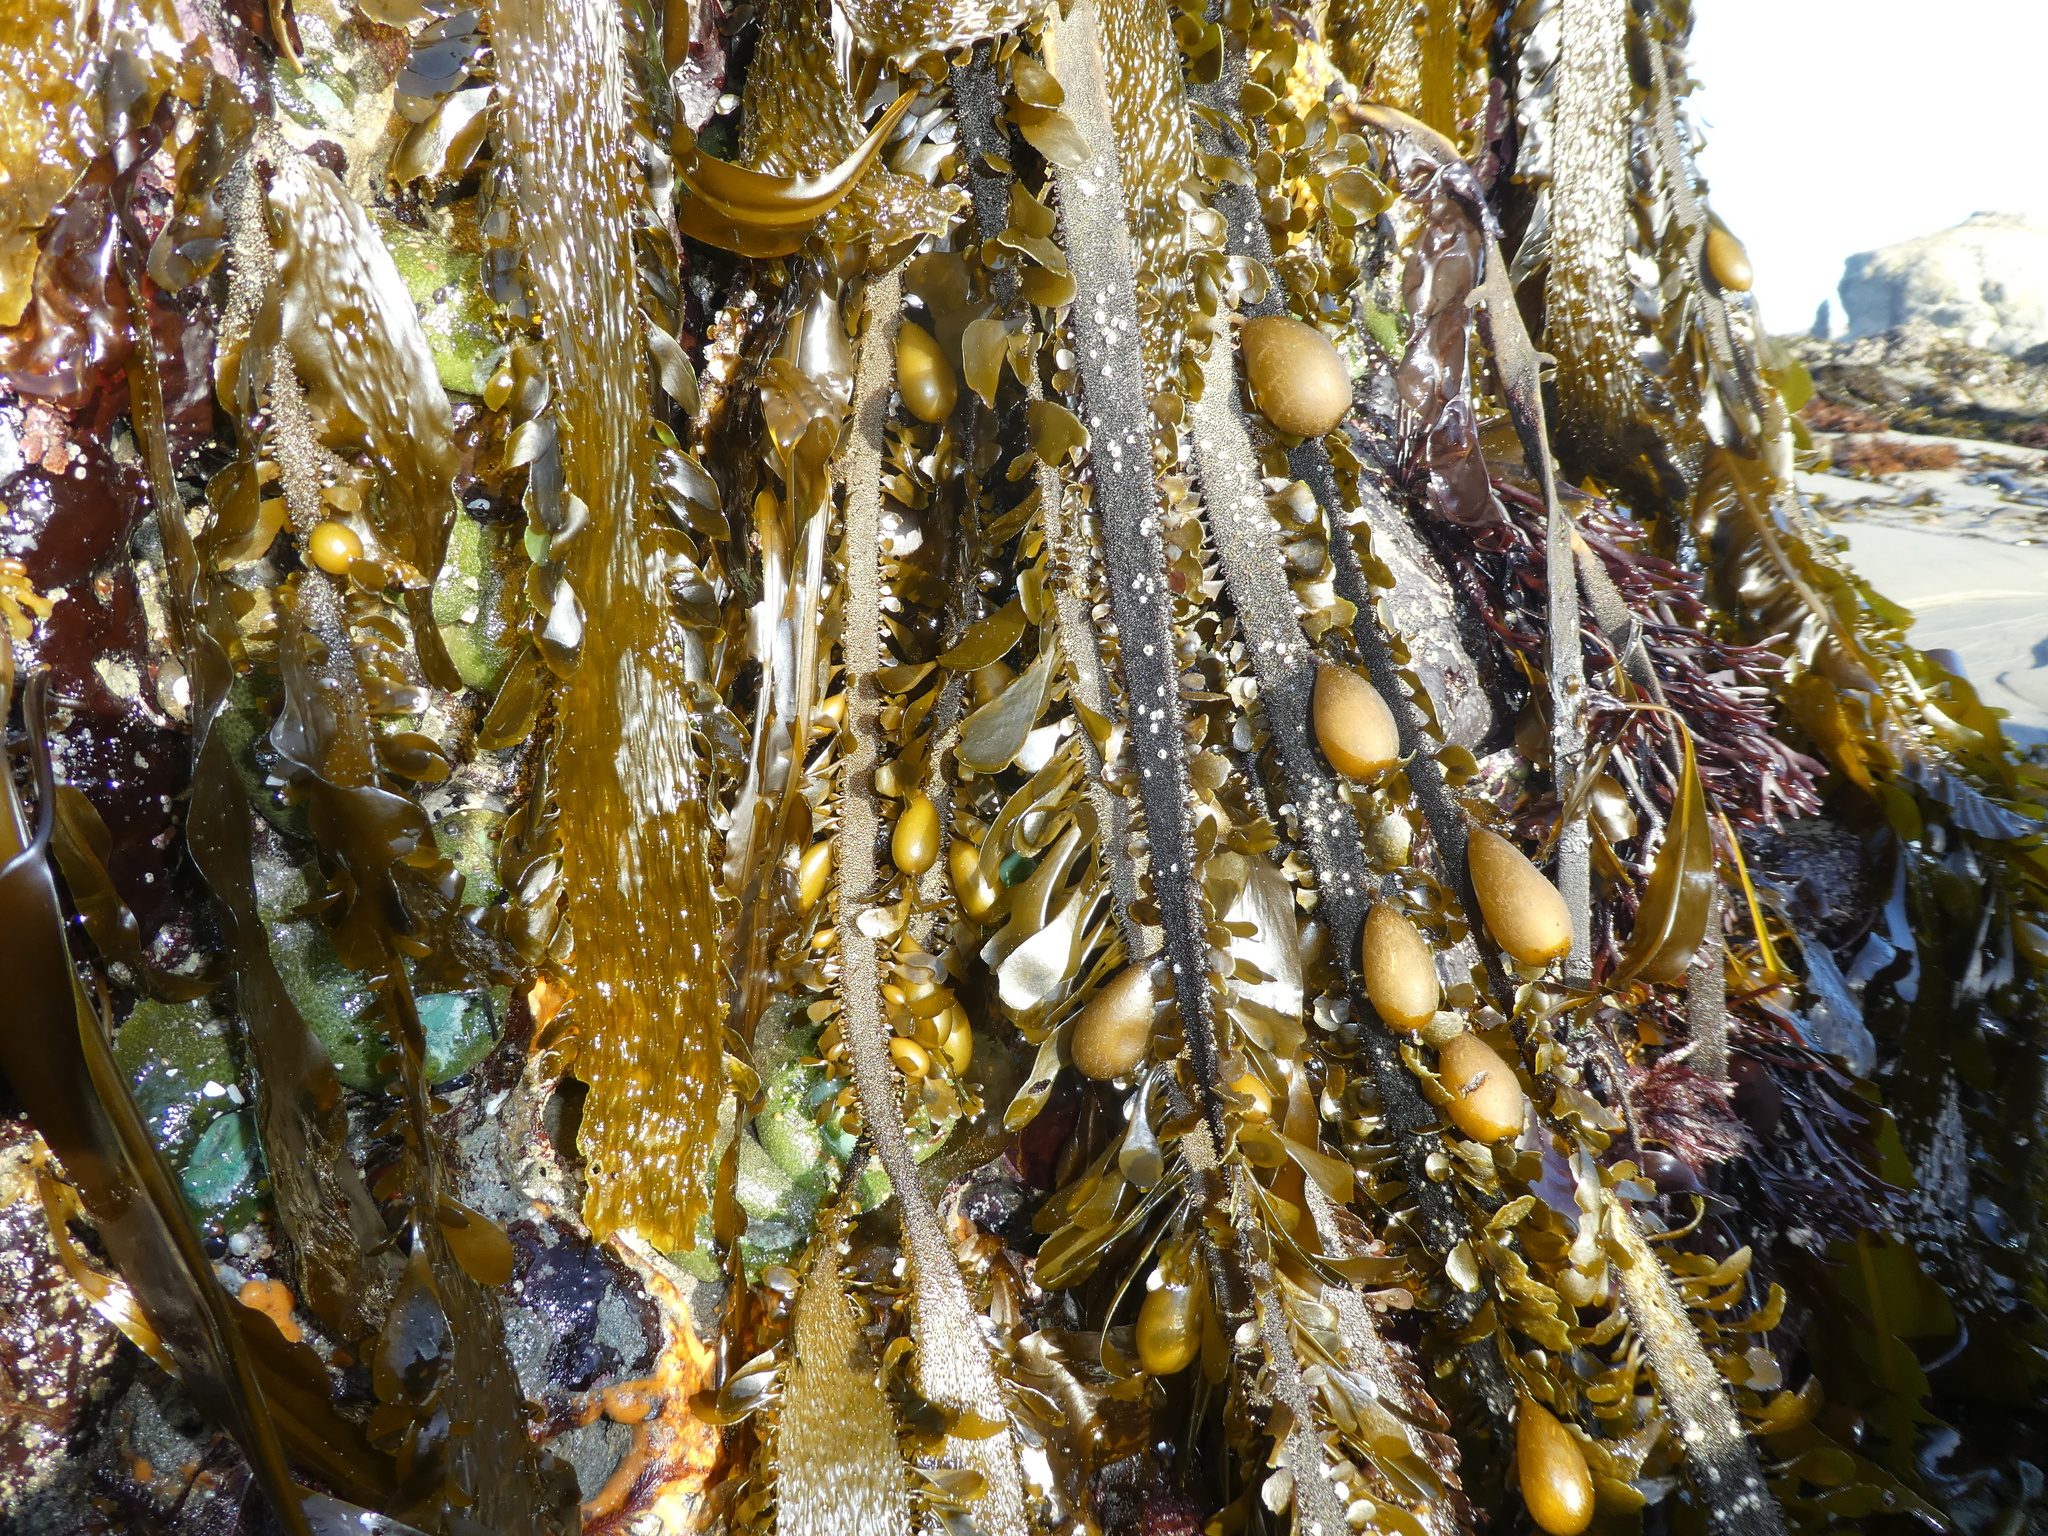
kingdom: Chromista
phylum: Ochrophyta
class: Phaeophyceae
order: Laminariales
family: Lessoniaceae
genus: Egregia
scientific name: Egregia menziesii
